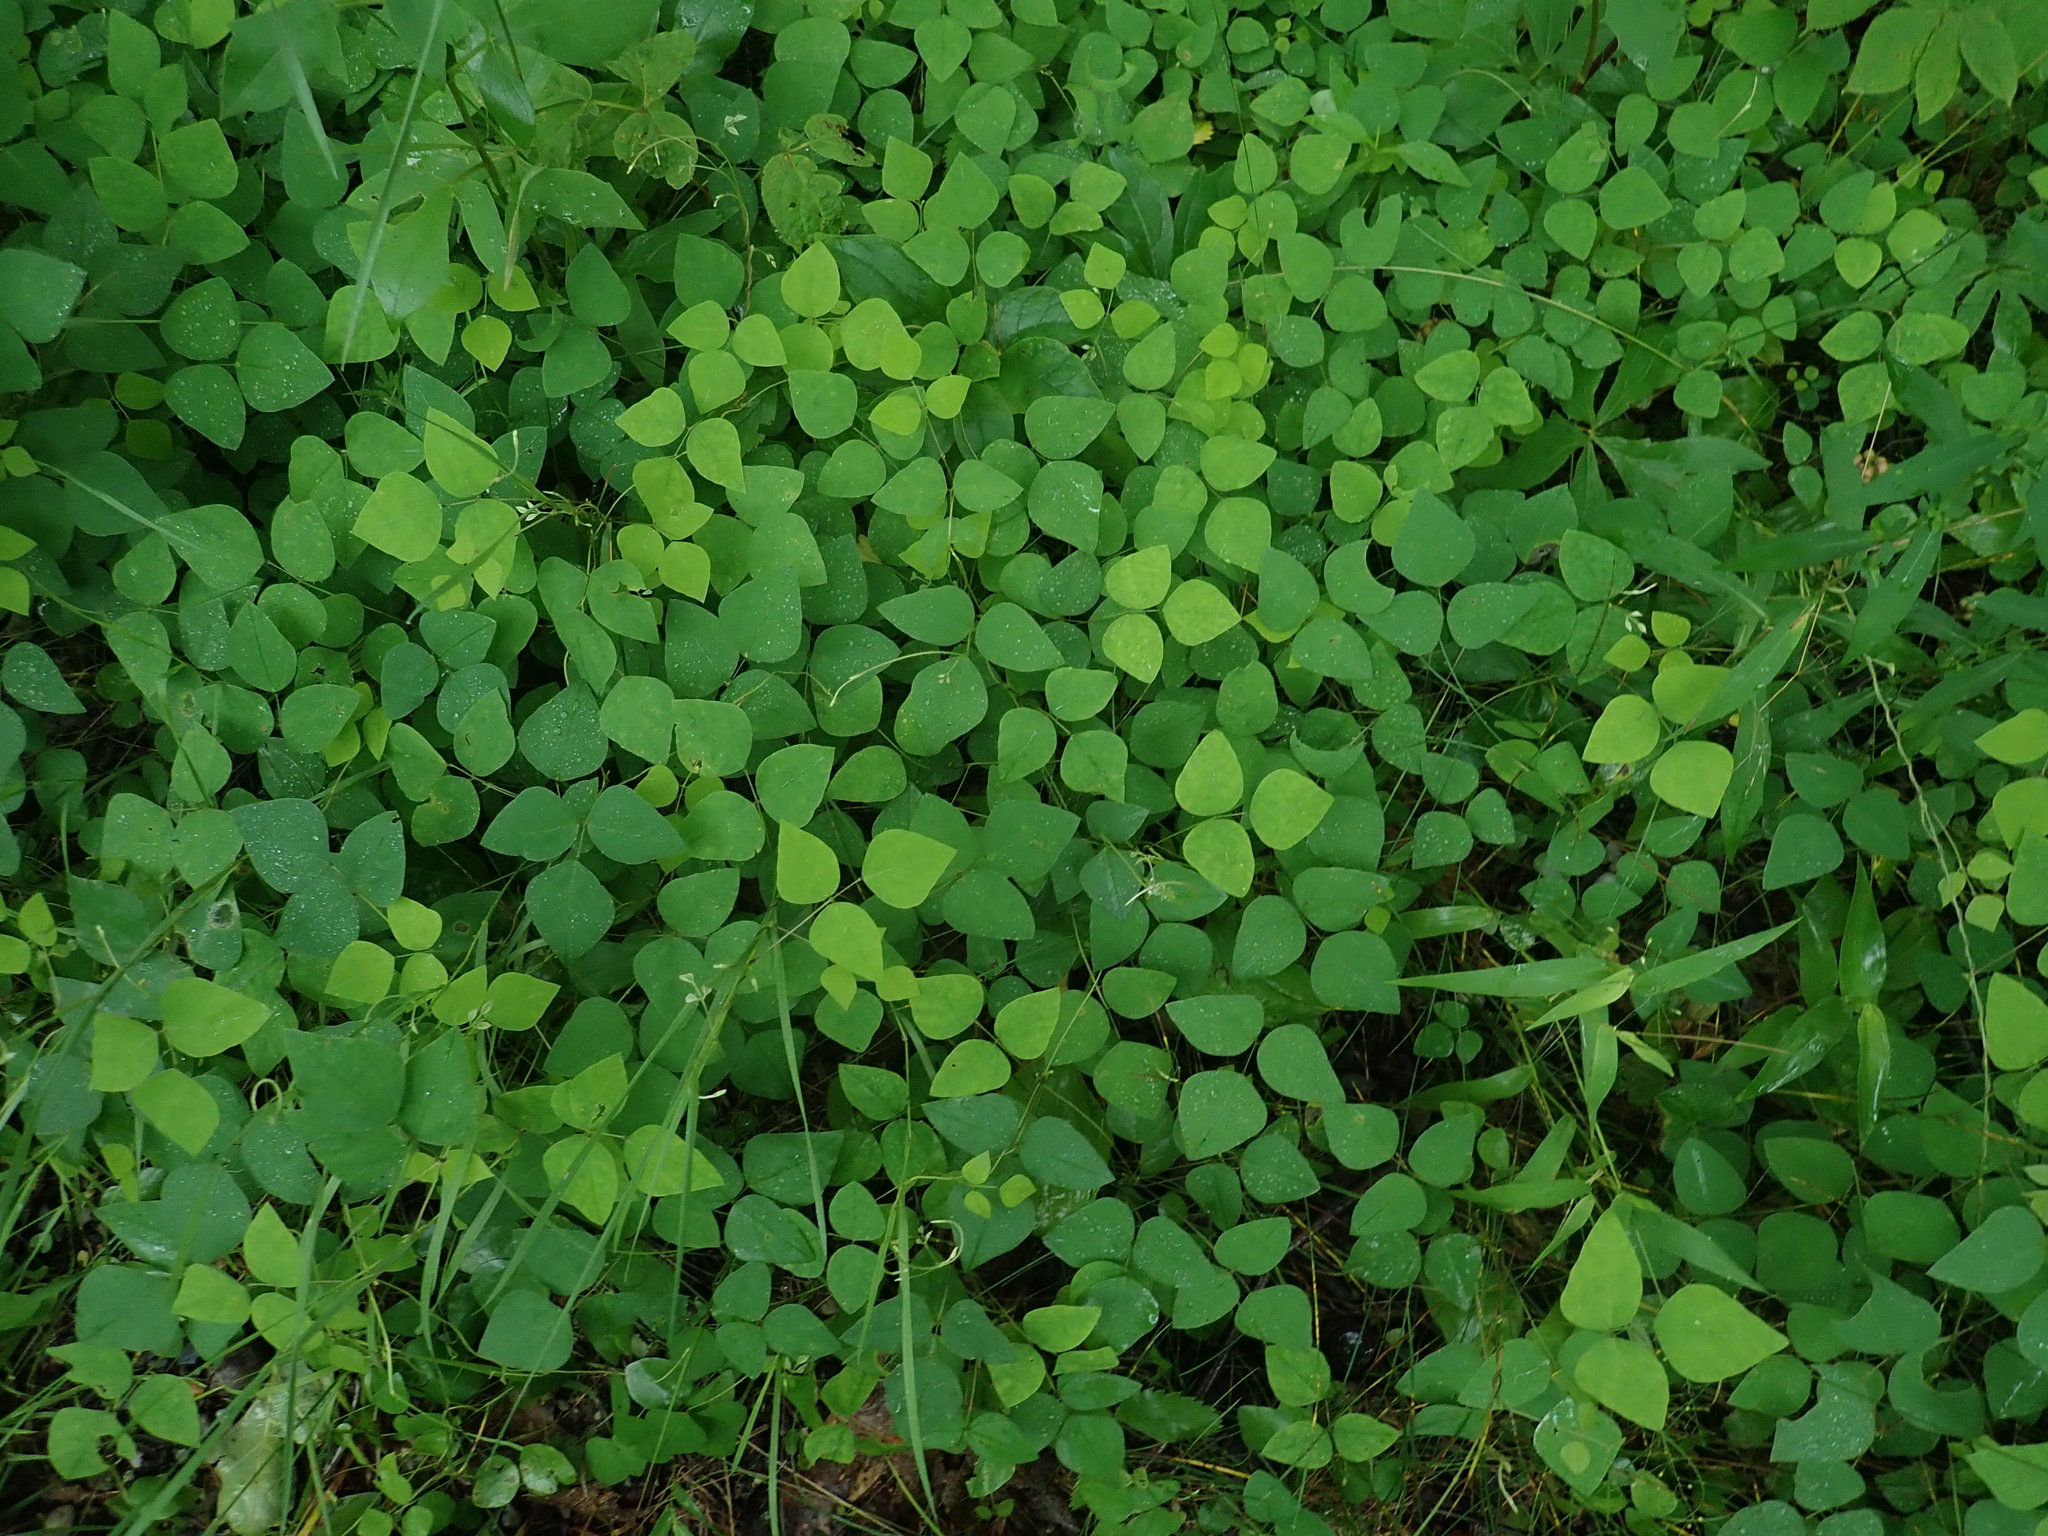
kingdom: Plantae
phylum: Tracheophyta
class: Magnoliopsida
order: Fabales
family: Fabaceae
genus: Amphicarpaea
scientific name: Amphicarpaea bracteata
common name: American hog peanut
